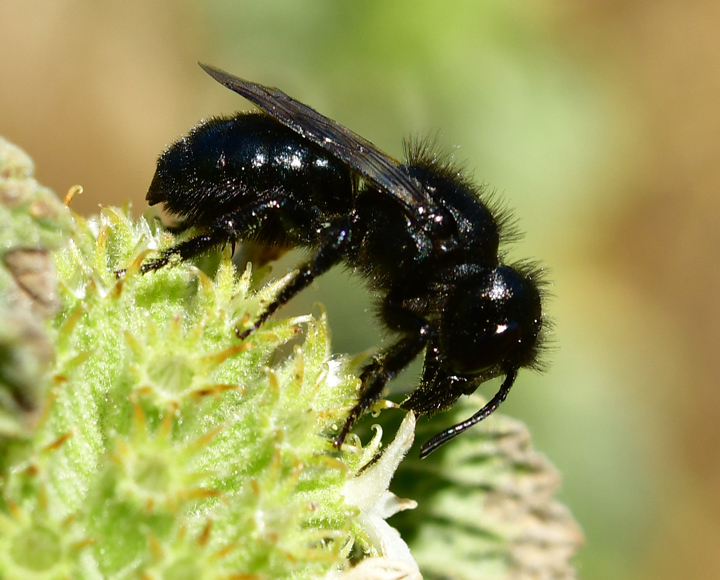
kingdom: Animalia
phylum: Arthropoda
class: Insecta
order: Hymenoptera
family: Megachilidae
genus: Osmia
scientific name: Osmia montana
